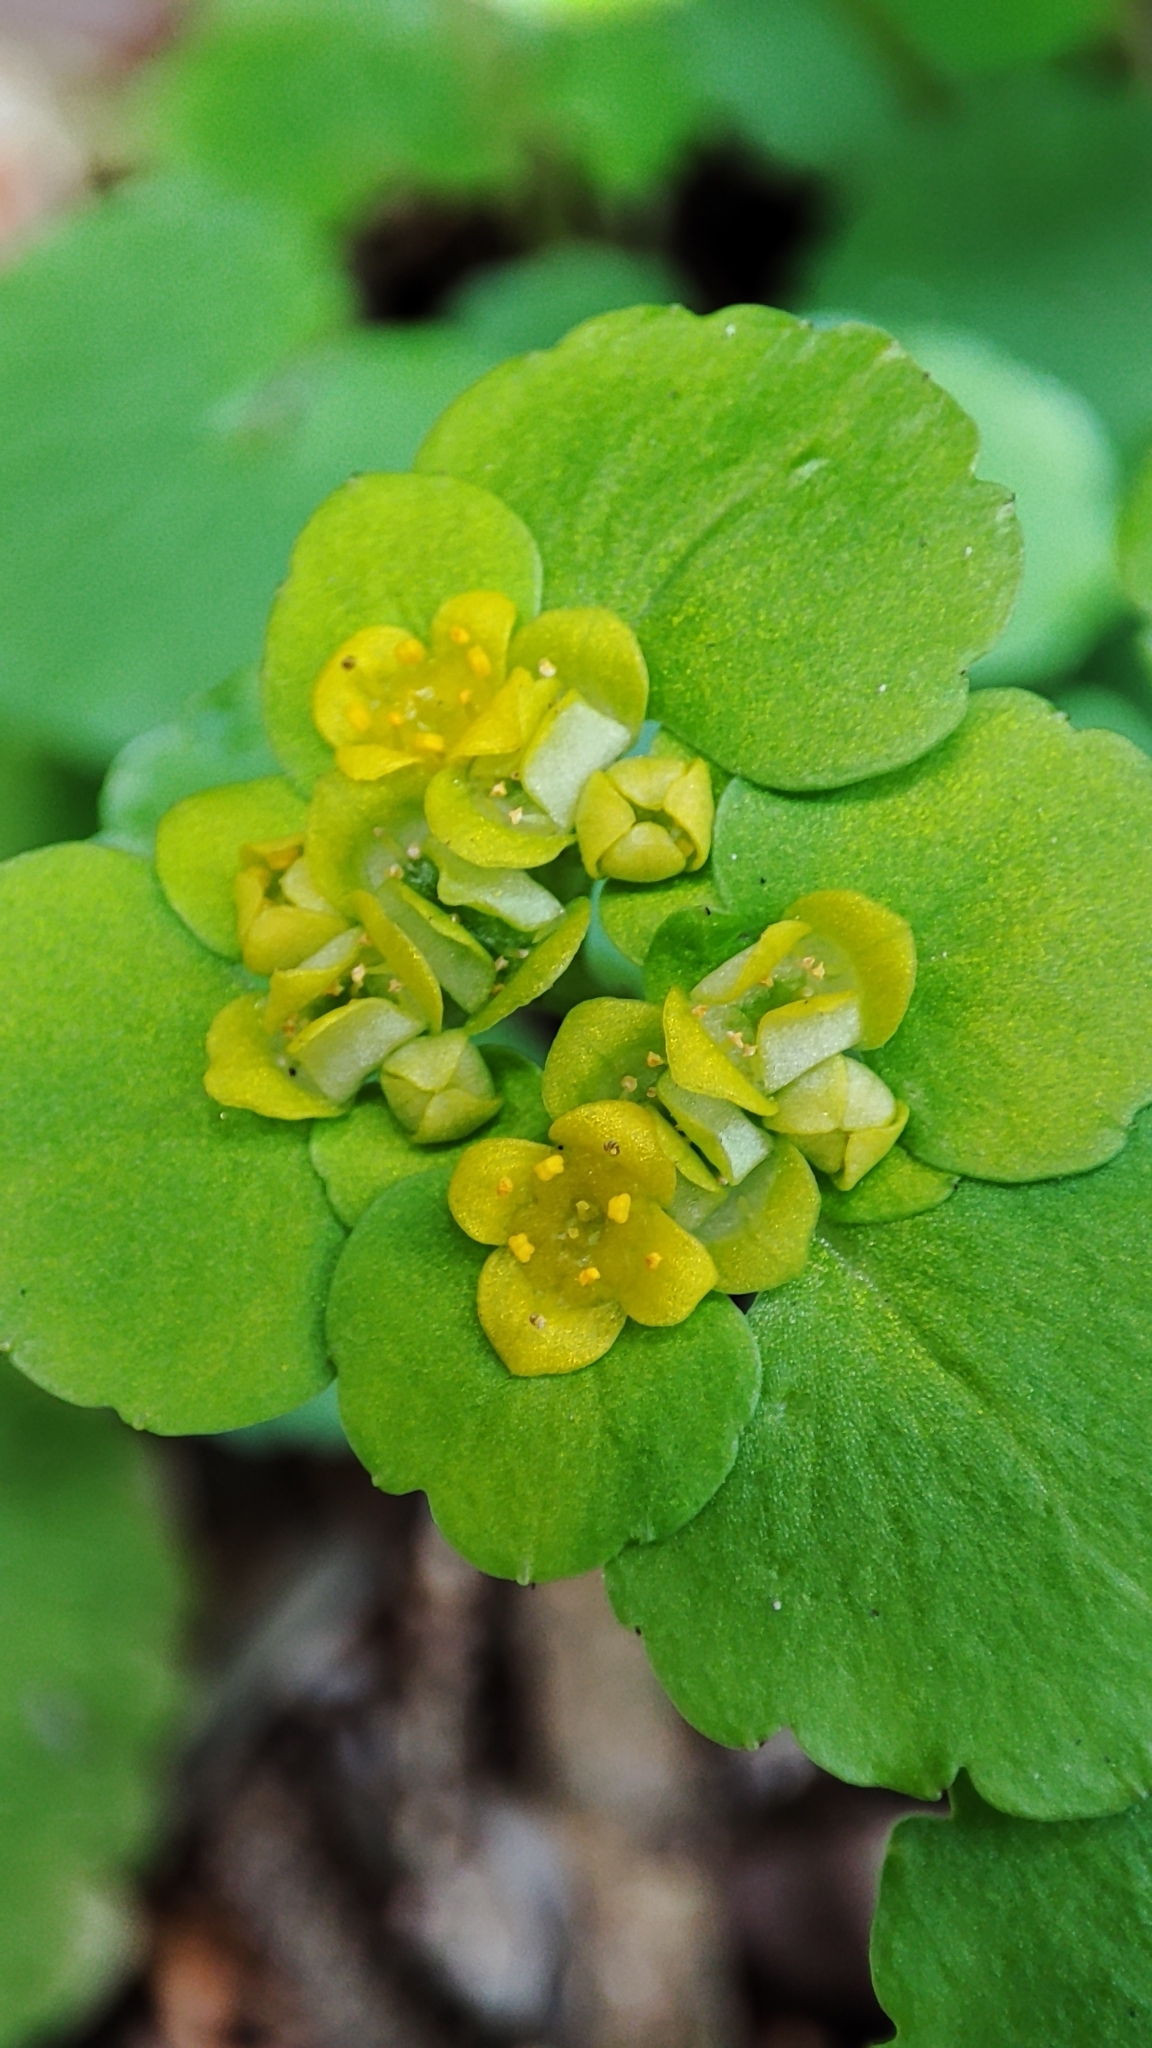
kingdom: Plantae
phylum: Tracheophyta
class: Magnoliopsida
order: Saxifragales
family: Saxifragaceae
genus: Chrysosplenium
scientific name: Chrysosplenium alternifolium
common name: Alternate-leaved golden-saxifrage
